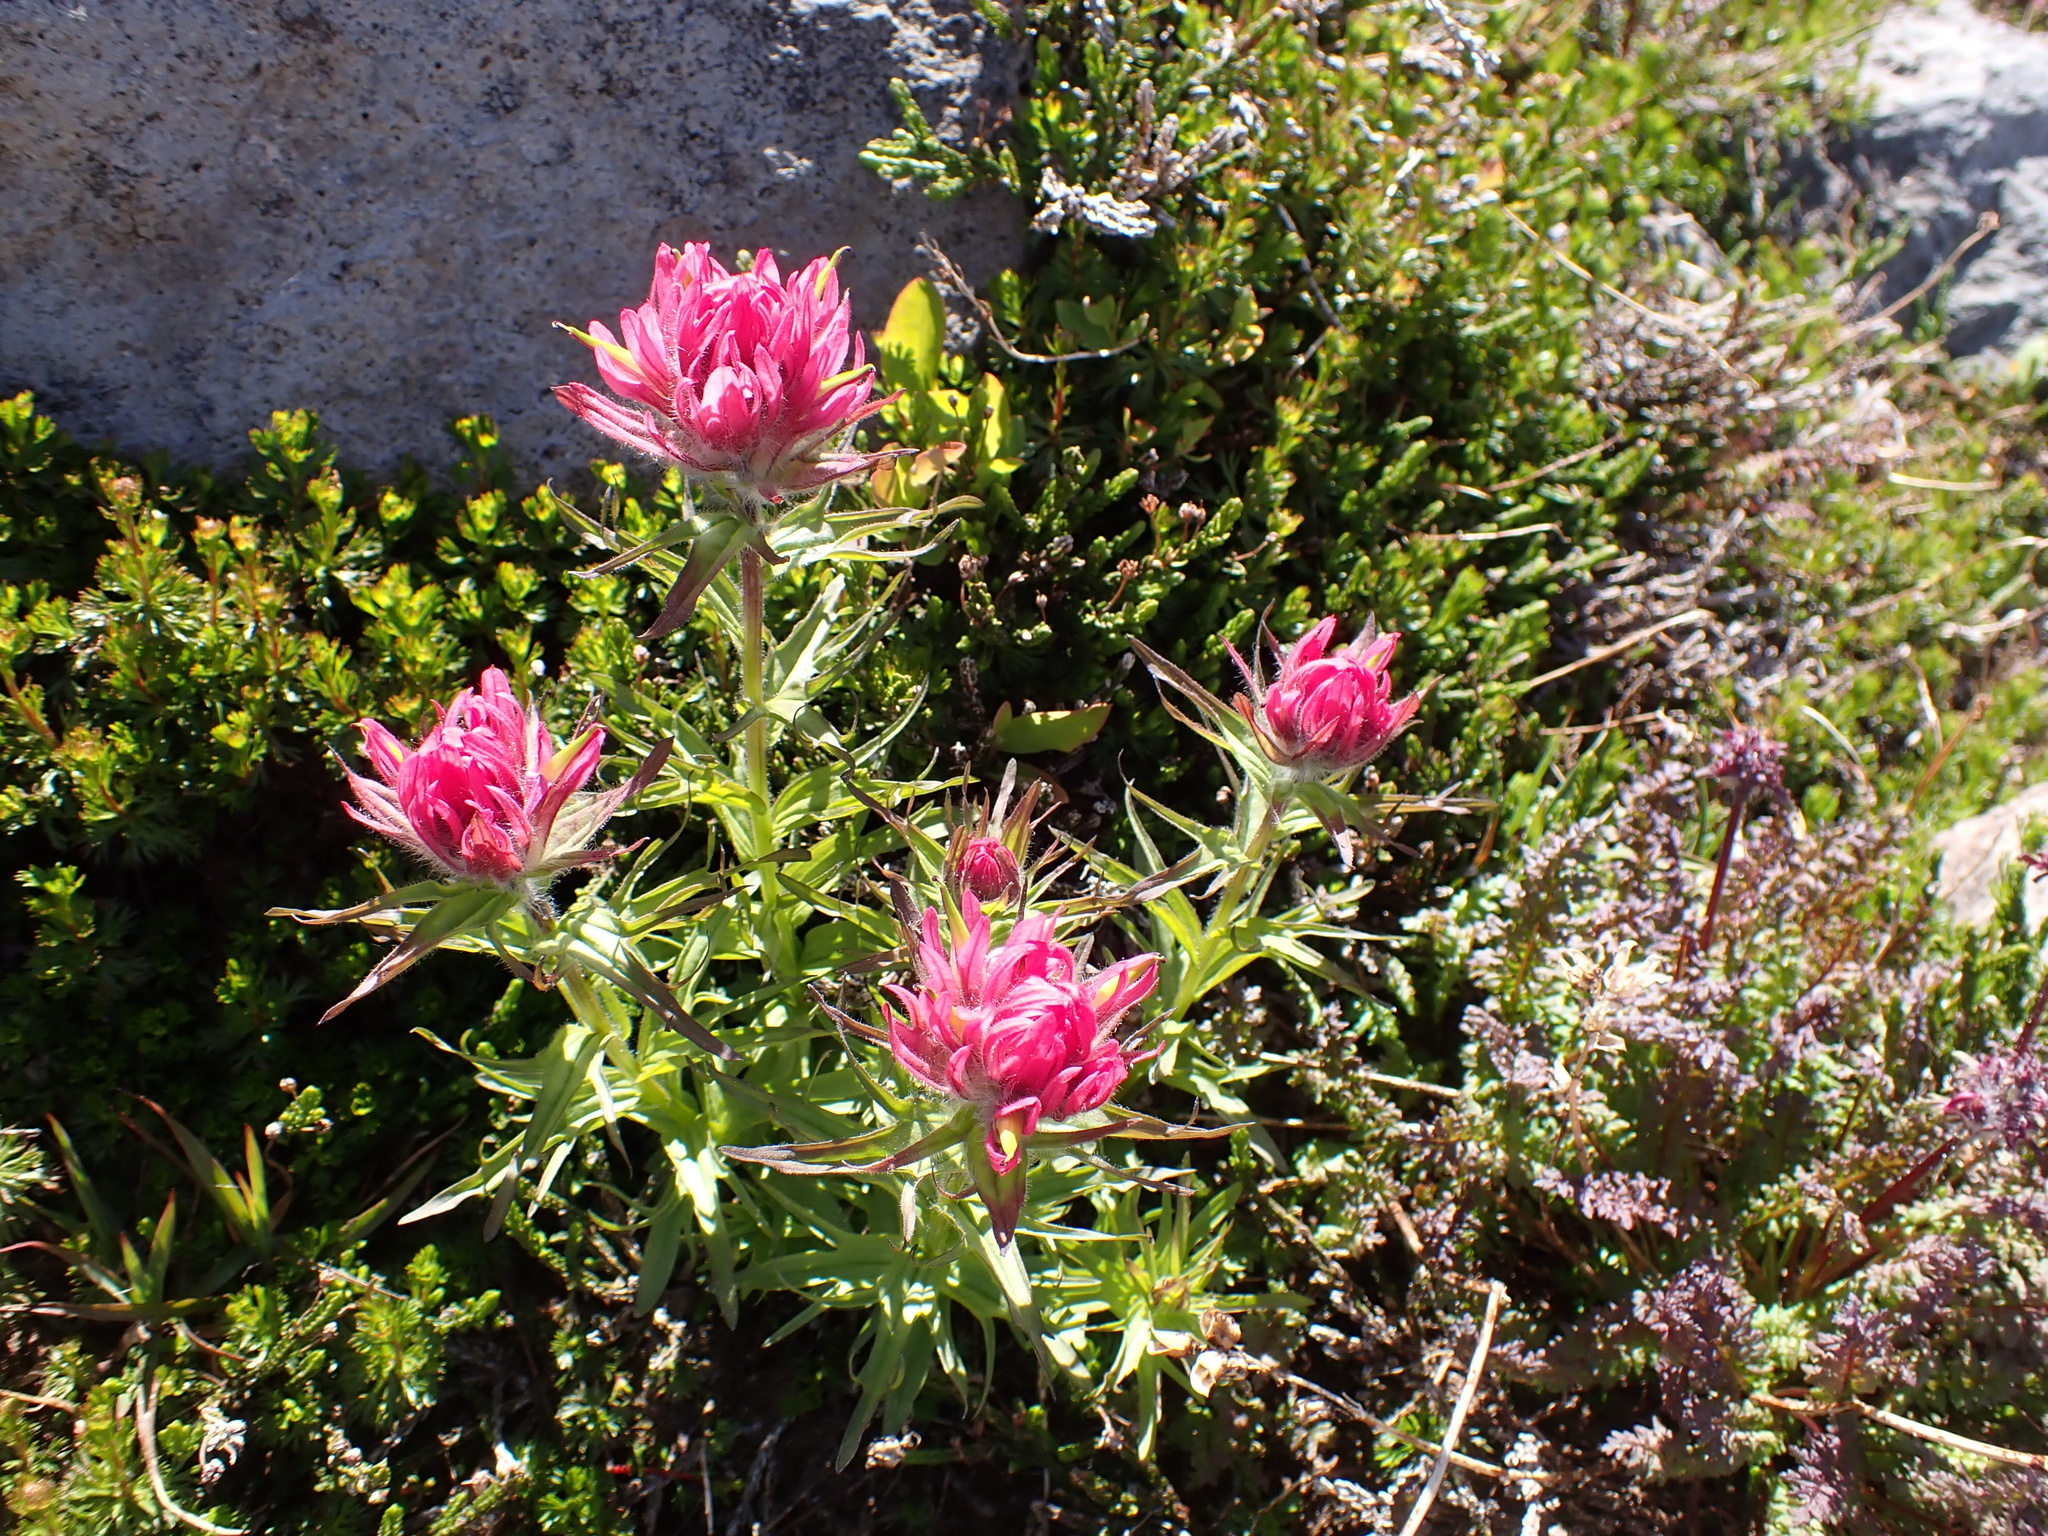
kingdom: Plantae
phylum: Tracheophyta
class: Magnoliopsida
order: Lamiales
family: Orobanchaceae
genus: Castilleja
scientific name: Castilleja parviflora
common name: Mountain paintbrush
